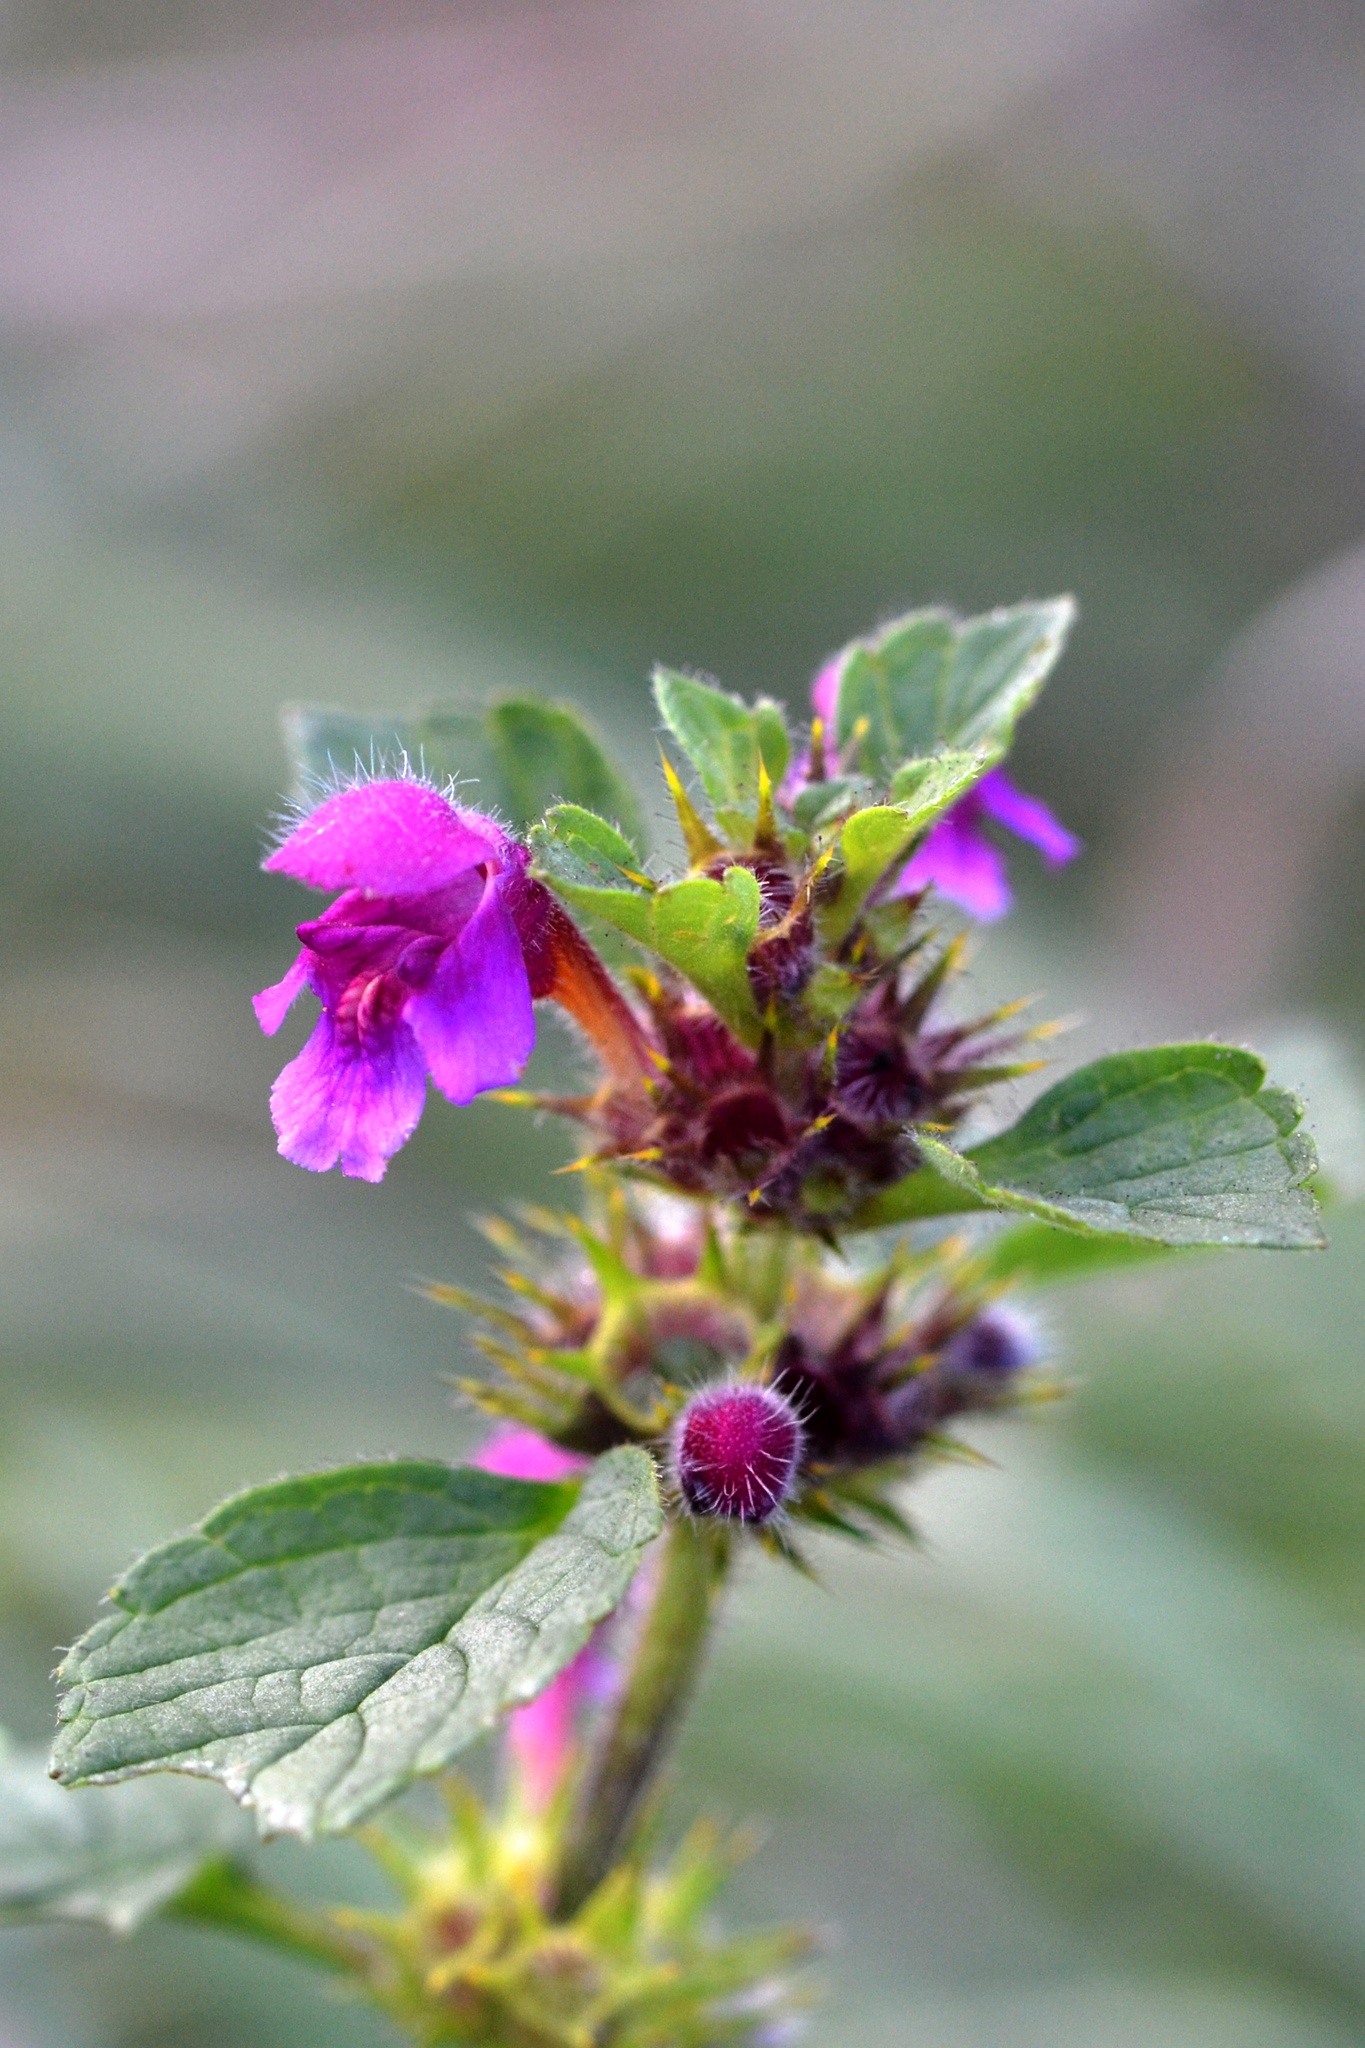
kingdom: Plantae
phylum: Tracheophyta
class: Magnoliopsida
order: Lamiales
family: Lamiaceae
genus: Galeopsis
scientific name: Galeopsis pubescens
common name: Downy hemp-nettle
